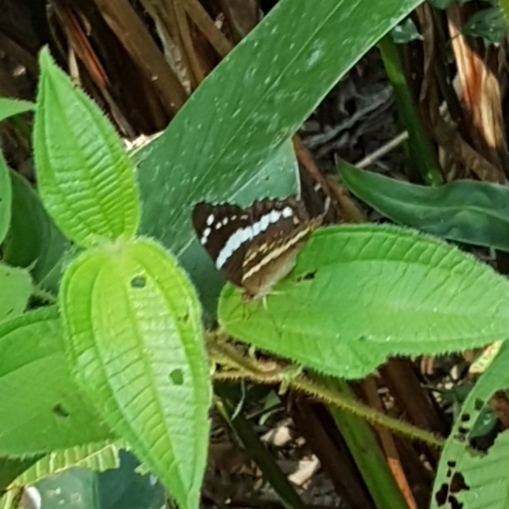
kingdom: Animalia
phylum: Arthropoda
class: Insecta
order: Lepidoptera
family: Nymphalidae
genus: Anartia
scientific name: Anartia fatima
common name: Banded peacock
